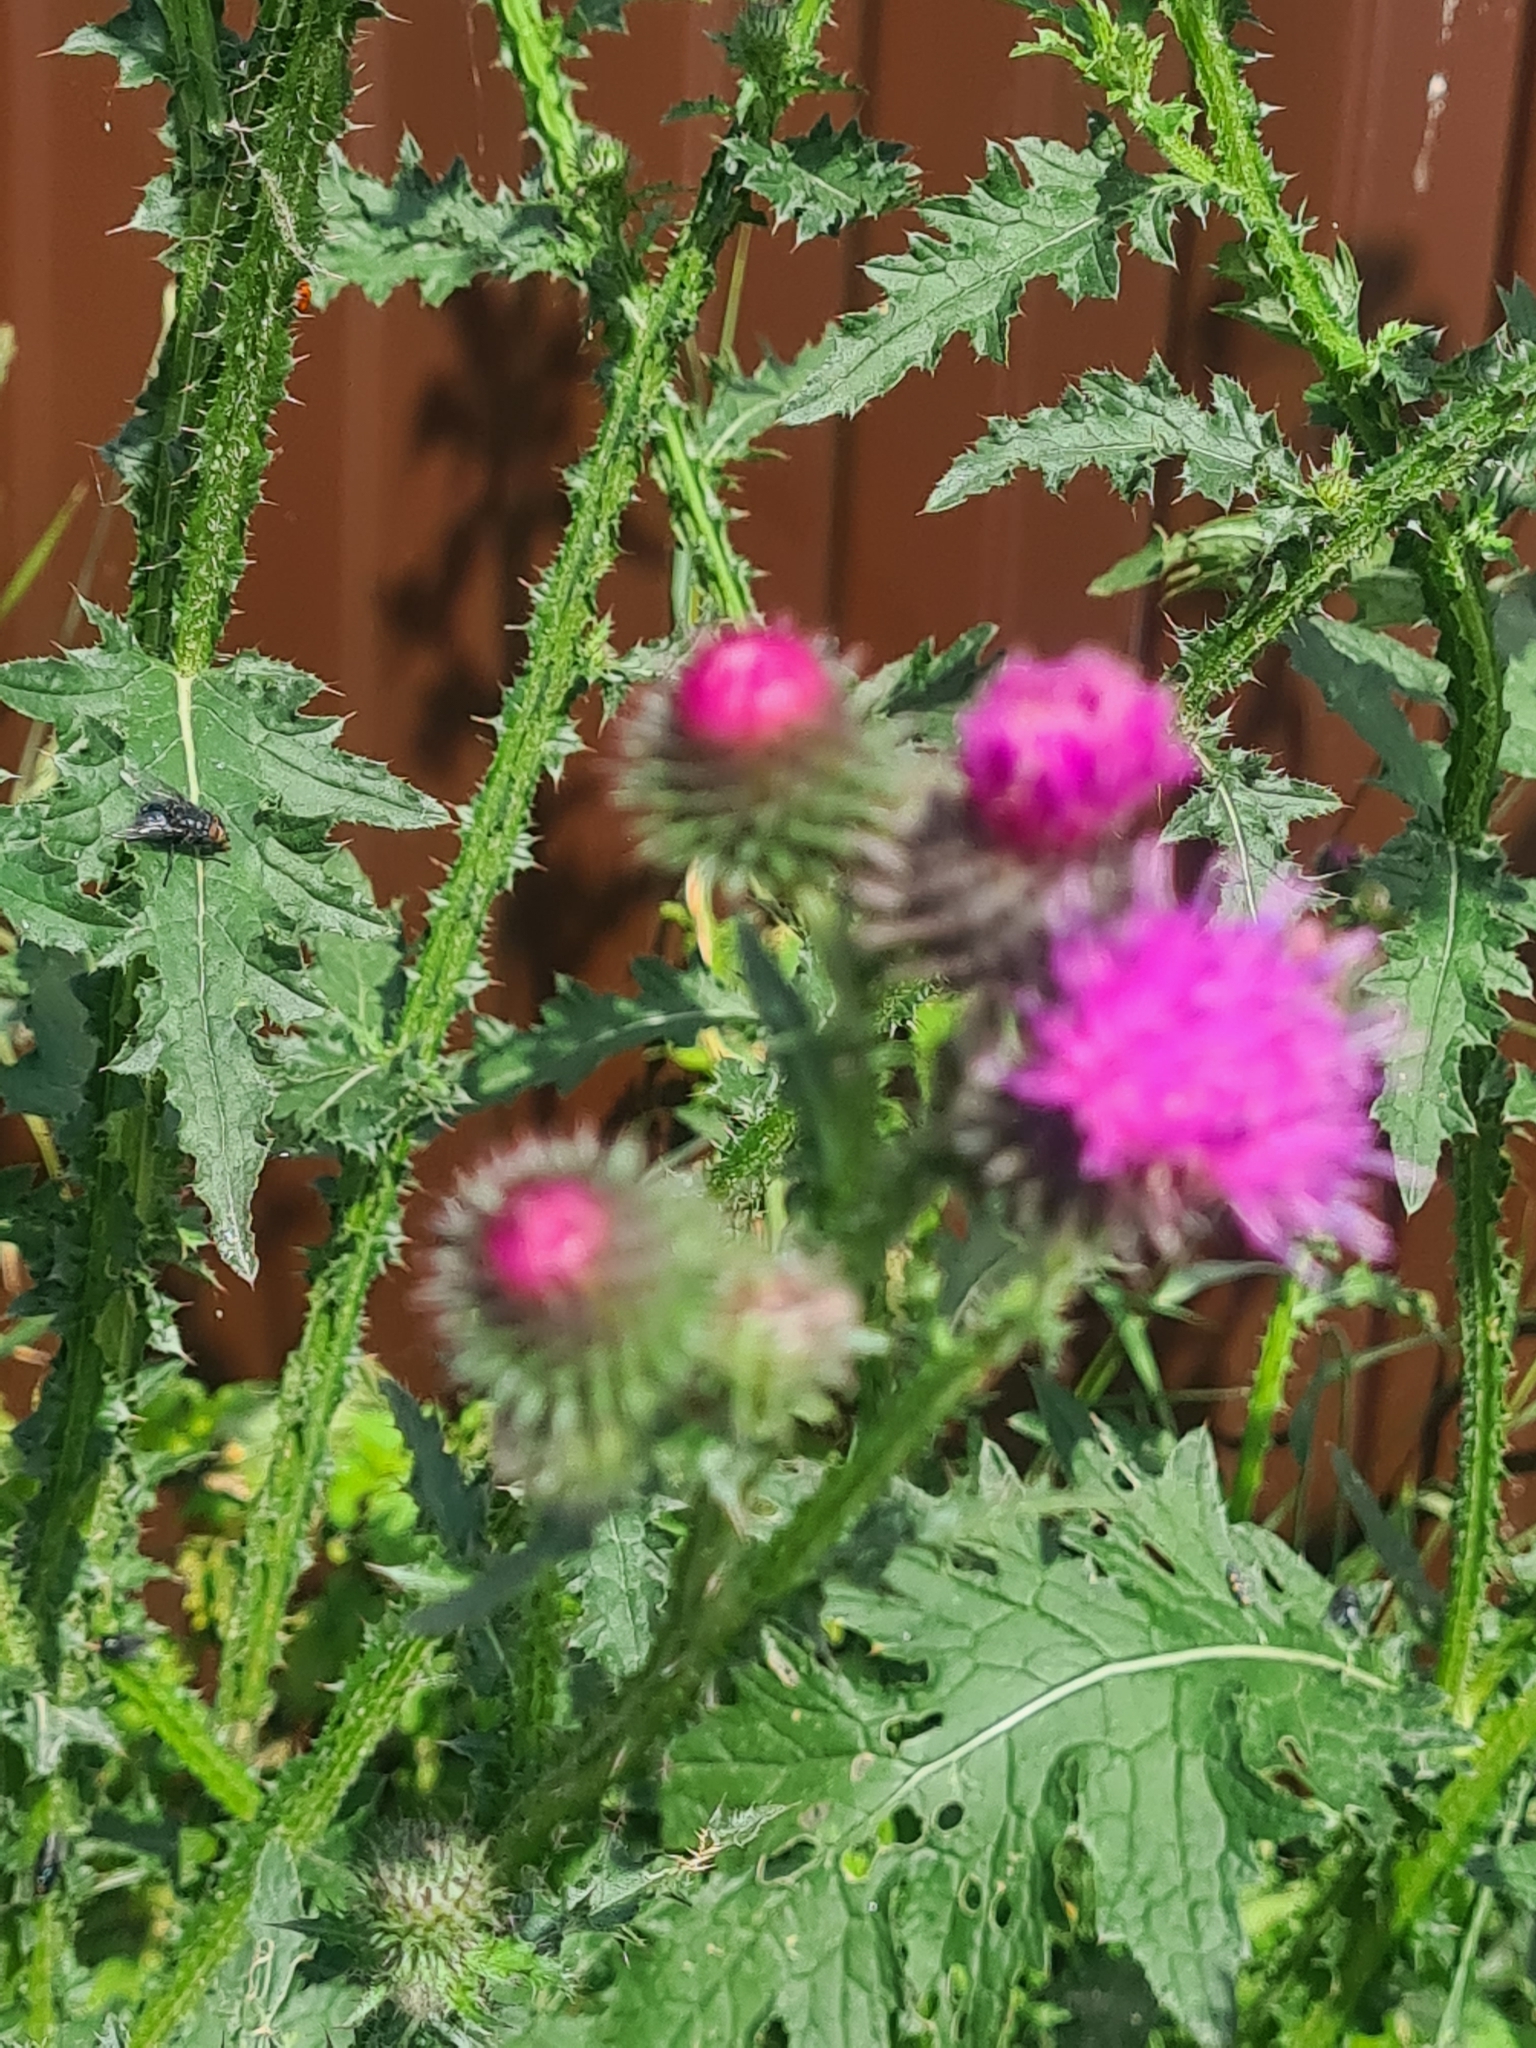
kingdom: Plantae
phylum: Tracheophyta
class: Magnoliopsida
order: Asterales
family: Asteraceae
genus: Carduus
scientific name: Carduus crispus
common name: Welted thistle
